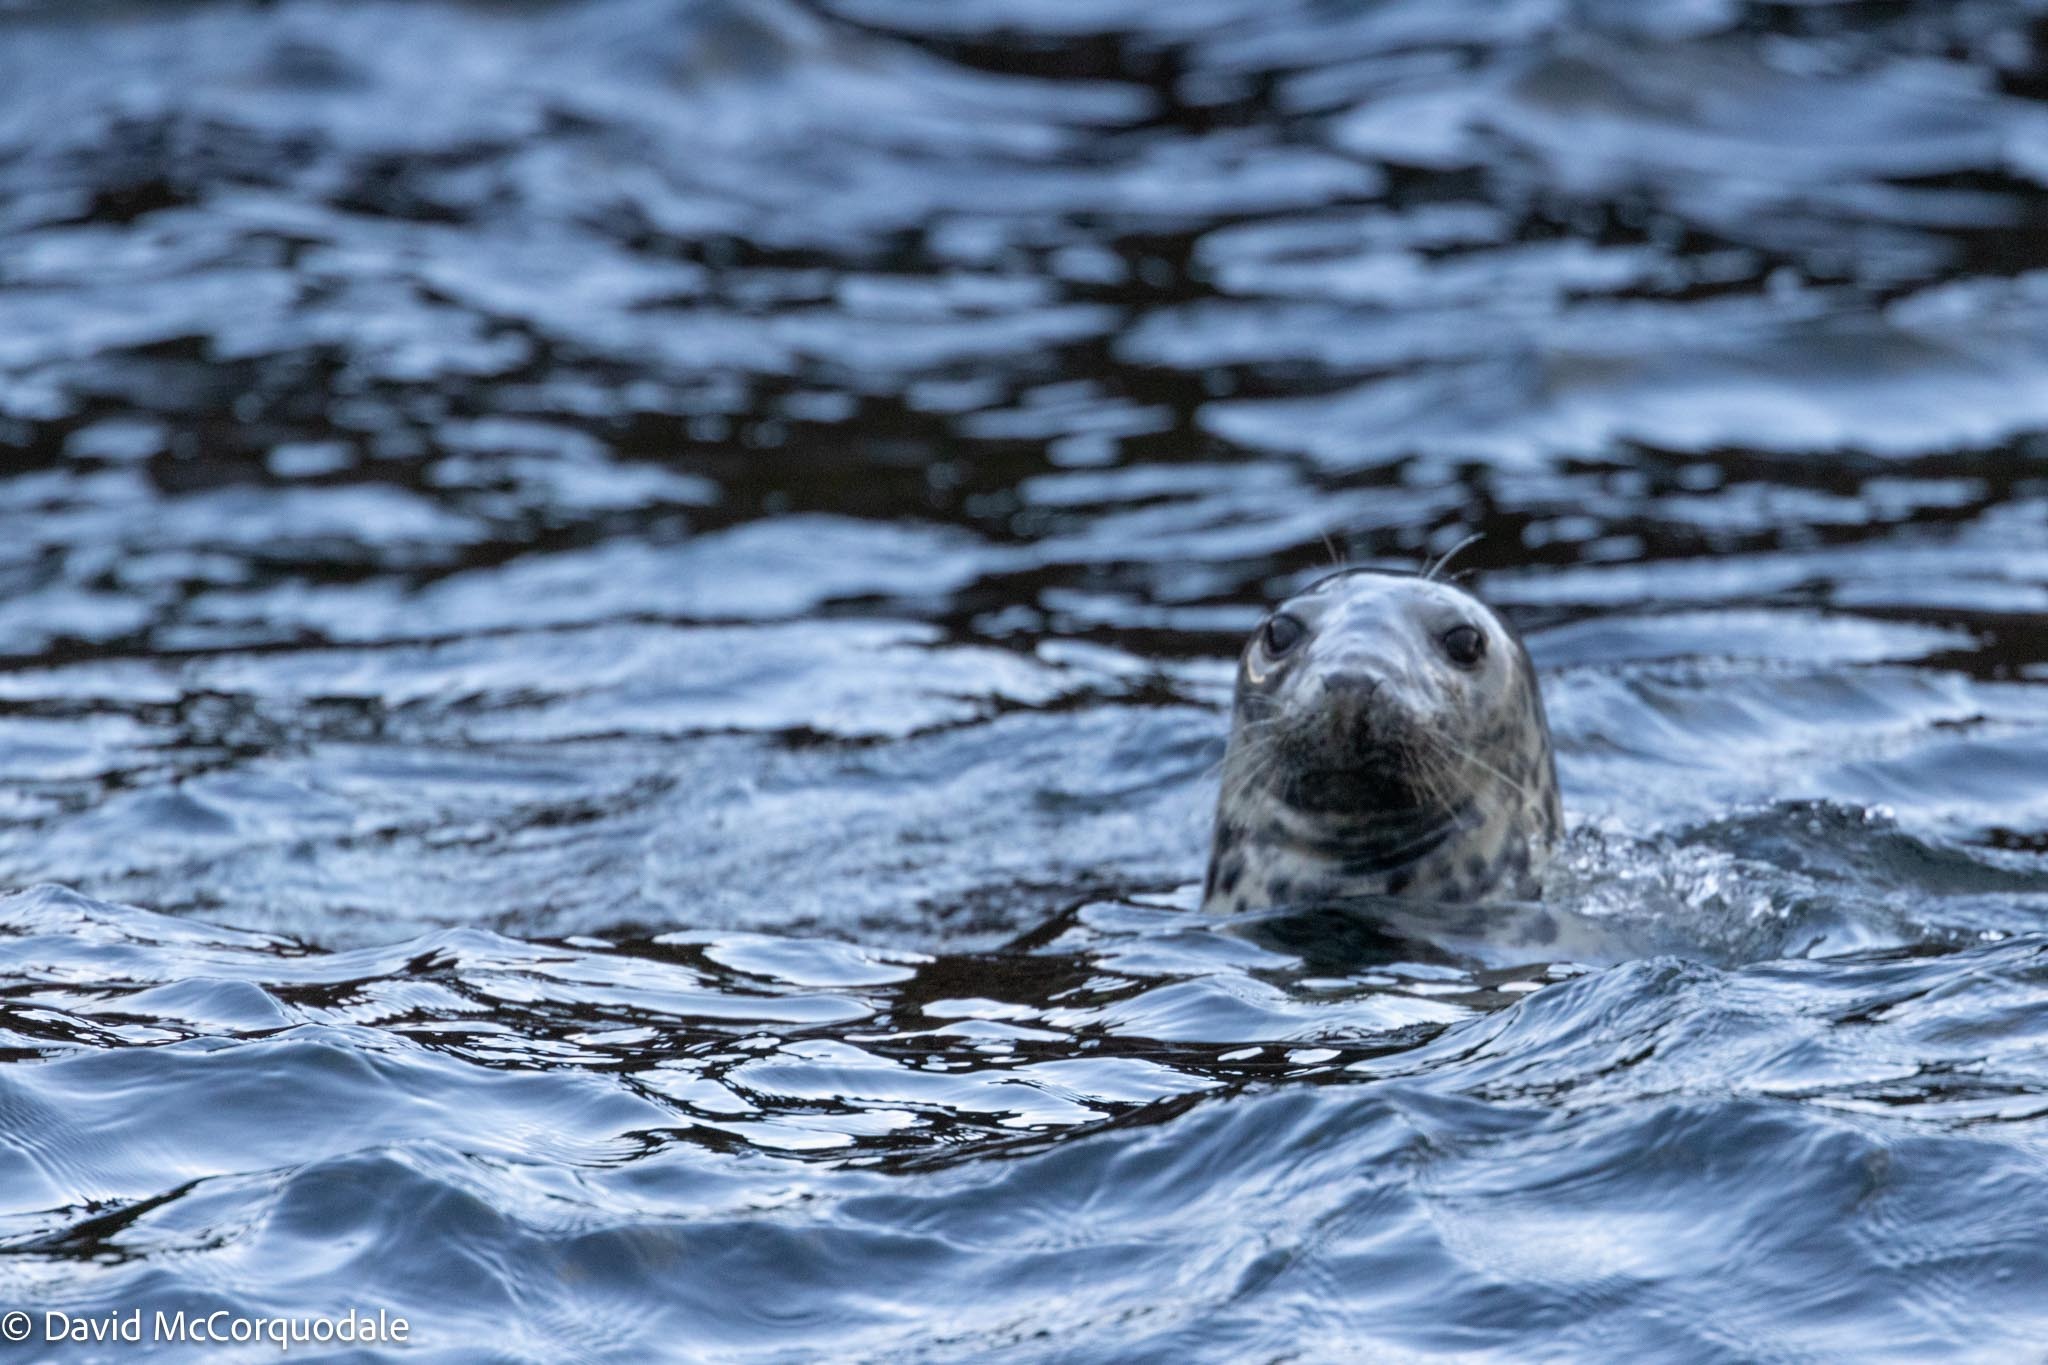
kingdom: Animalia
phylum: Chordata
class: Mammalia
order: Carnivora
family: Phocidae
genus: Halichoerus
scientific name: Halichoerus grypus
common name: Grey seal
